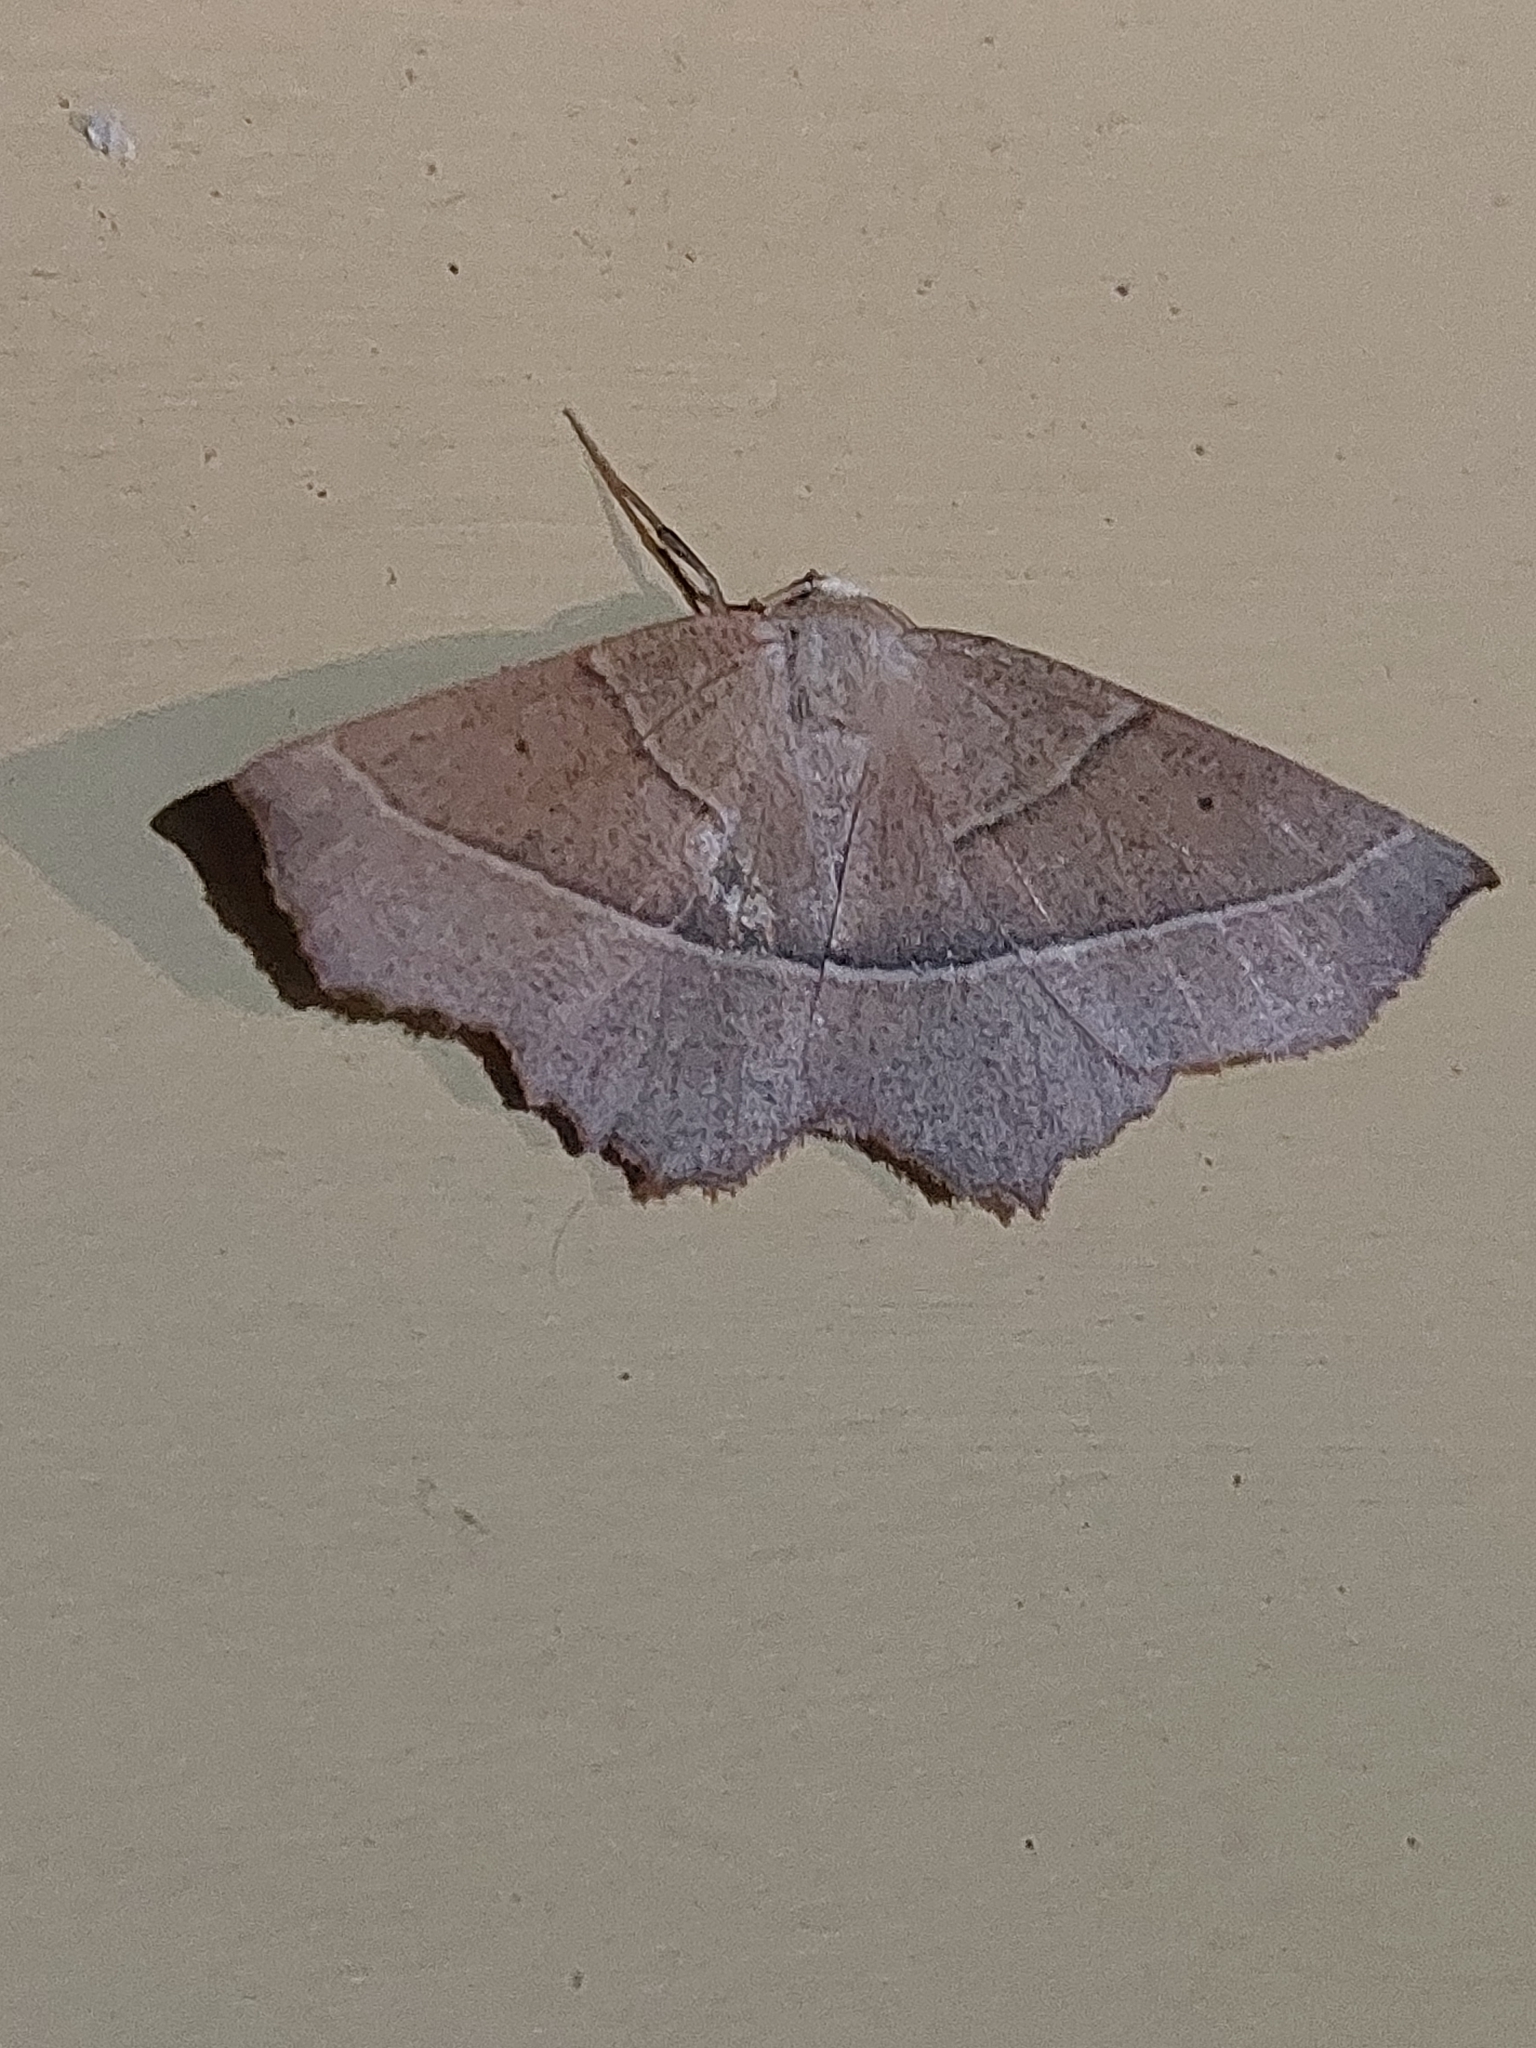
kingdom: Animalia
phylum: Arthropoda
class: Insecta
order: Lepidoptera
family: Geometridae
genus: Gerinia
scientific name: Gerinia honoraria
